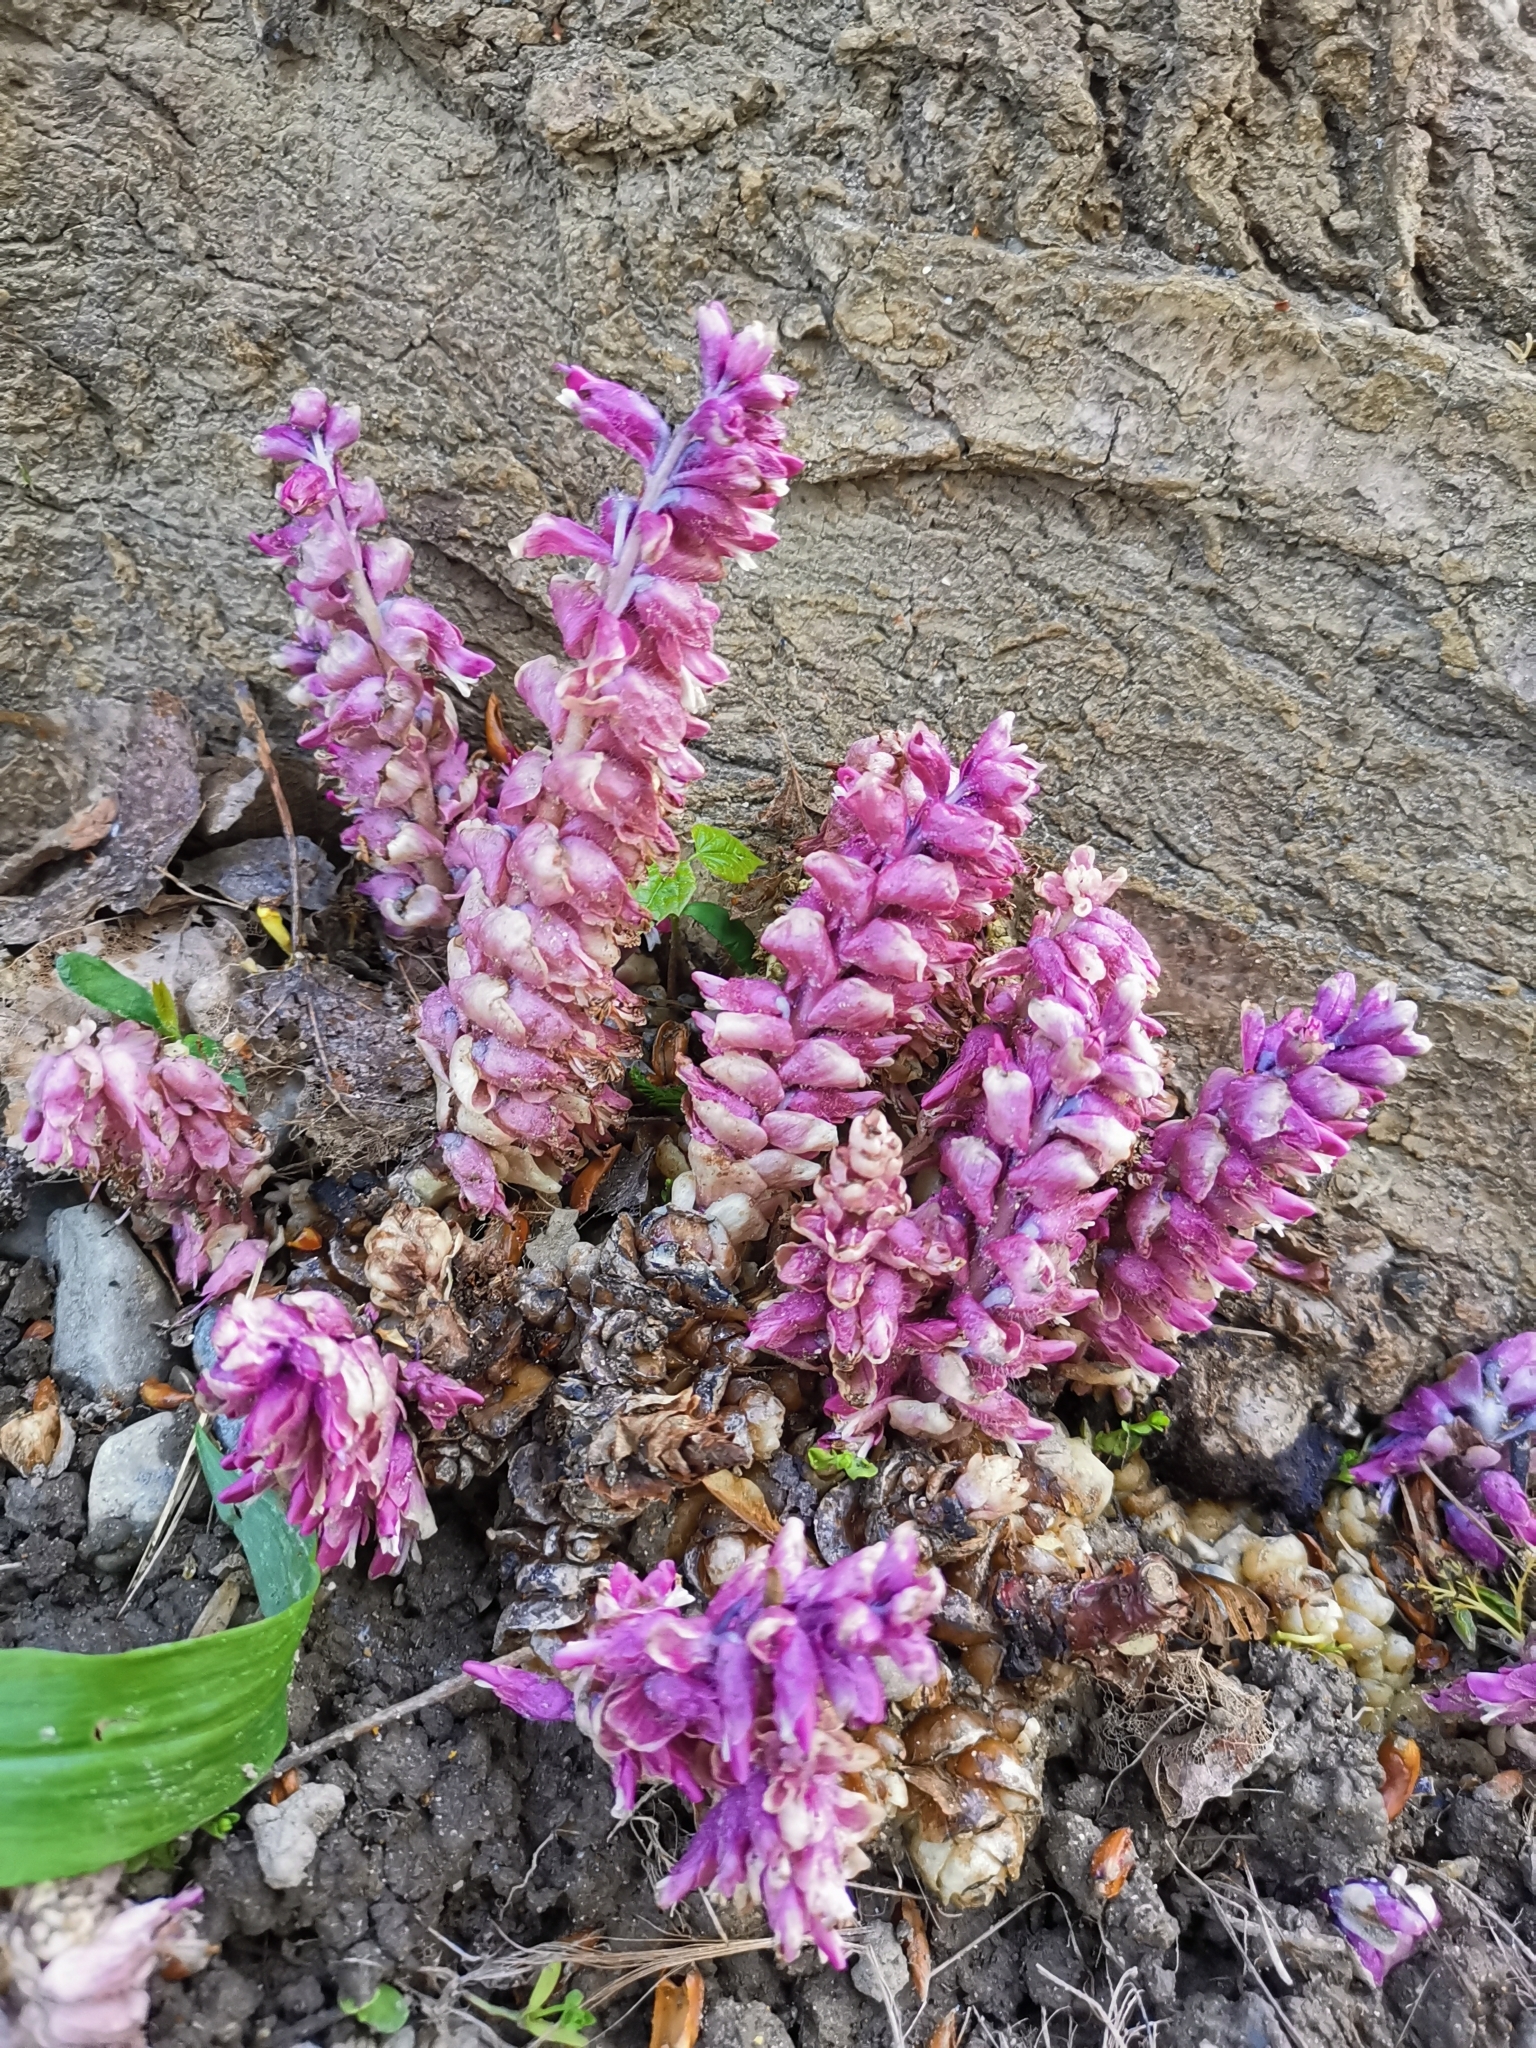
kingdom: Plantae
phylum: Tracheophyta
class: Magnoliopsida
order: Lamiales
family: Orobanchaceae
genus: Lathraea
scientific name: Lathraea squamaria
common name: Toothwort
